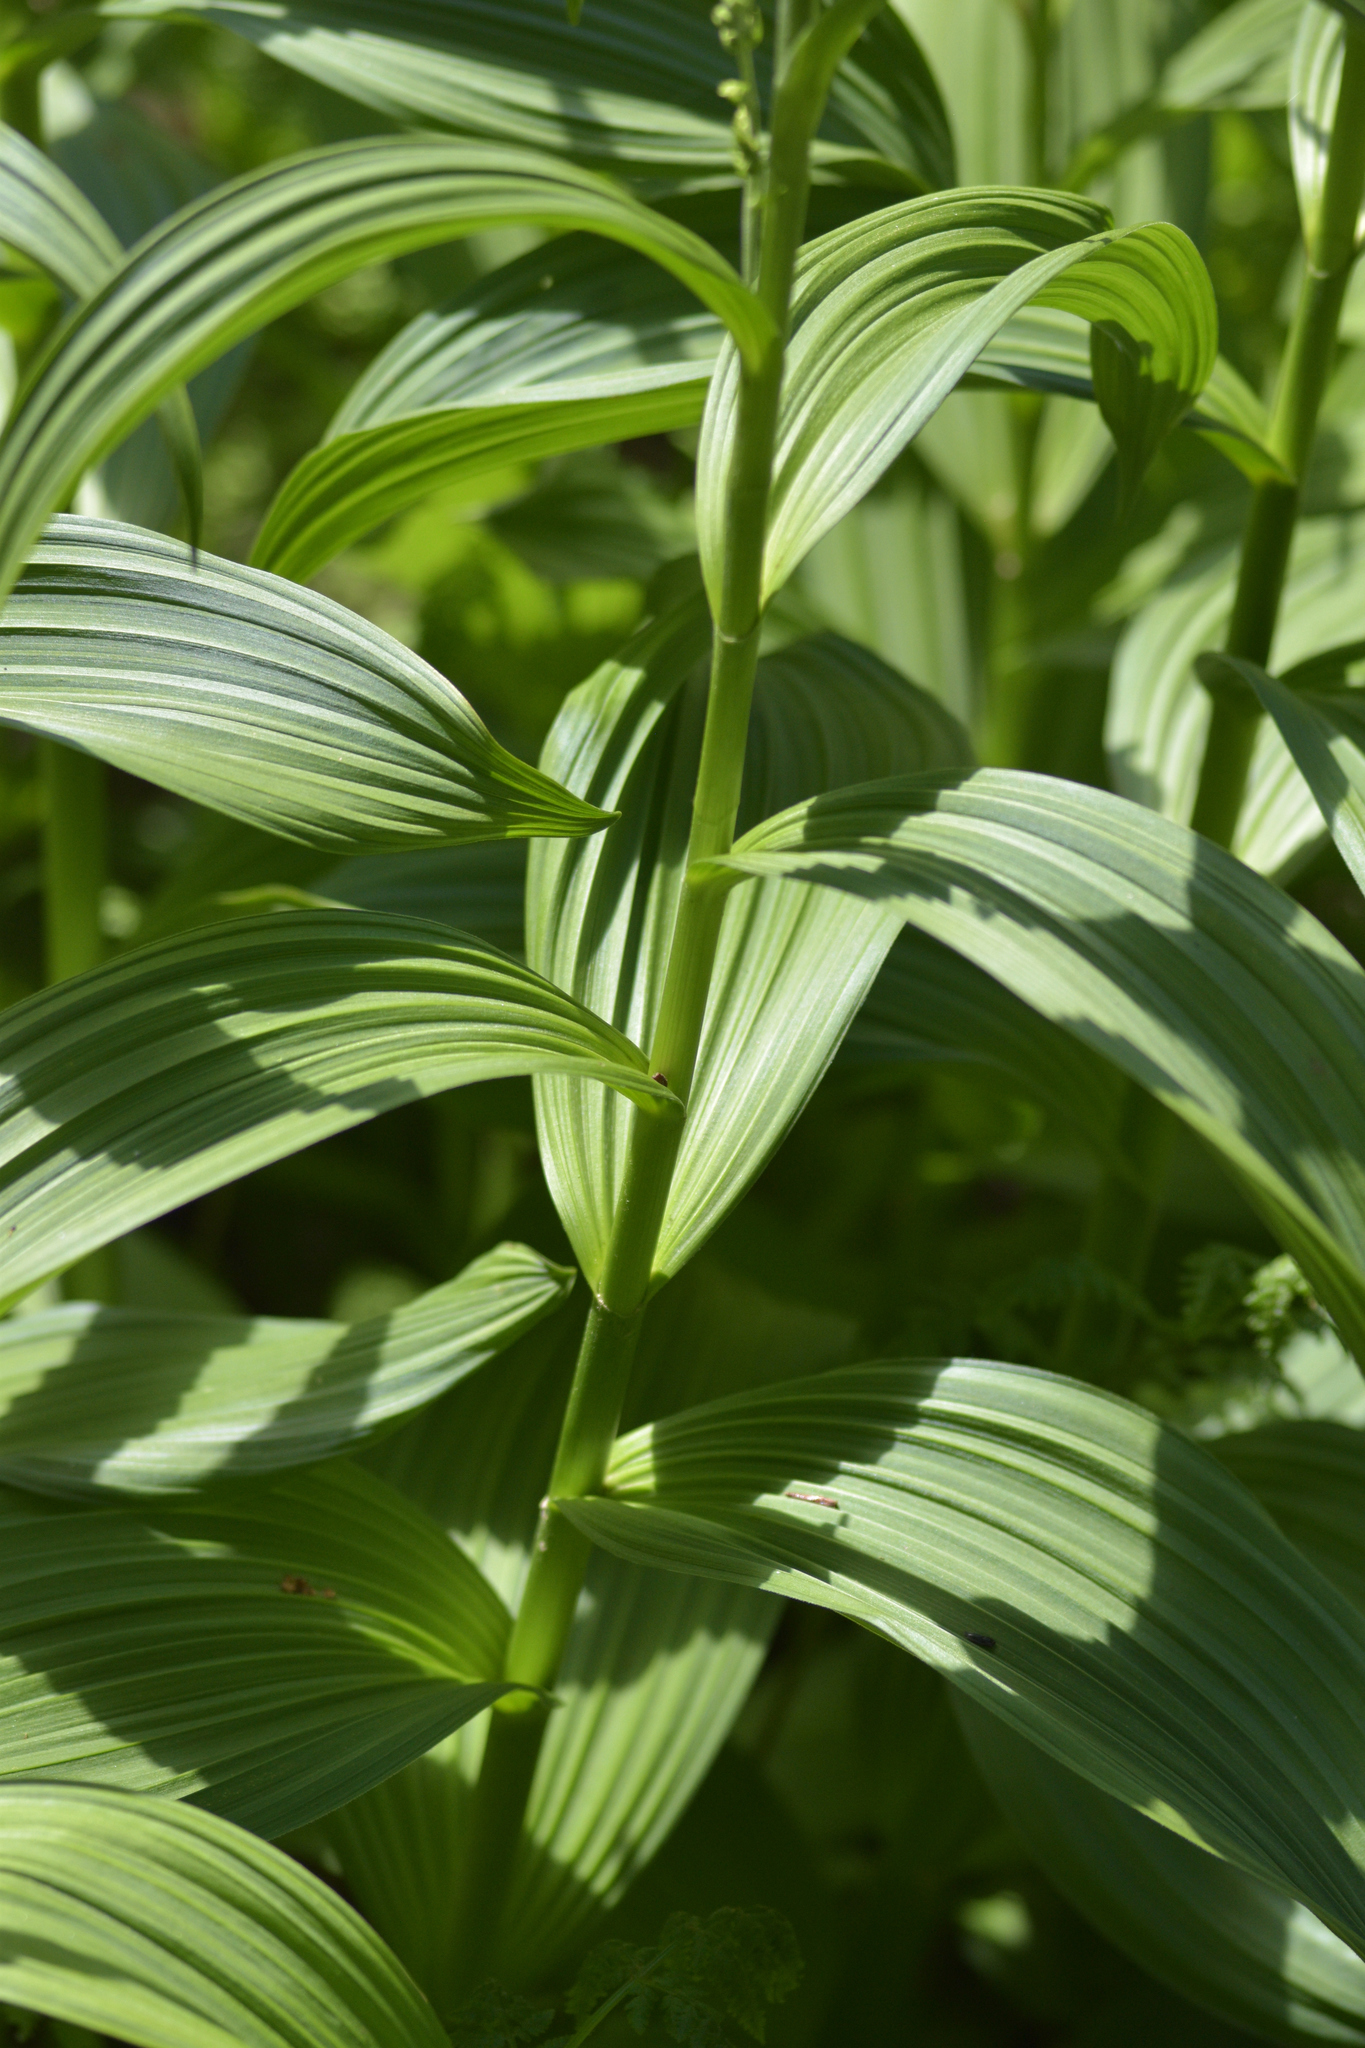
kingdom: Plantae
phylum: Tracheophyta
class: Liliopsida
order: Liliales
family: Melanthiaceae
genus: Veratrum
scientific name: Veratrum viride
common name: American false hellebore
